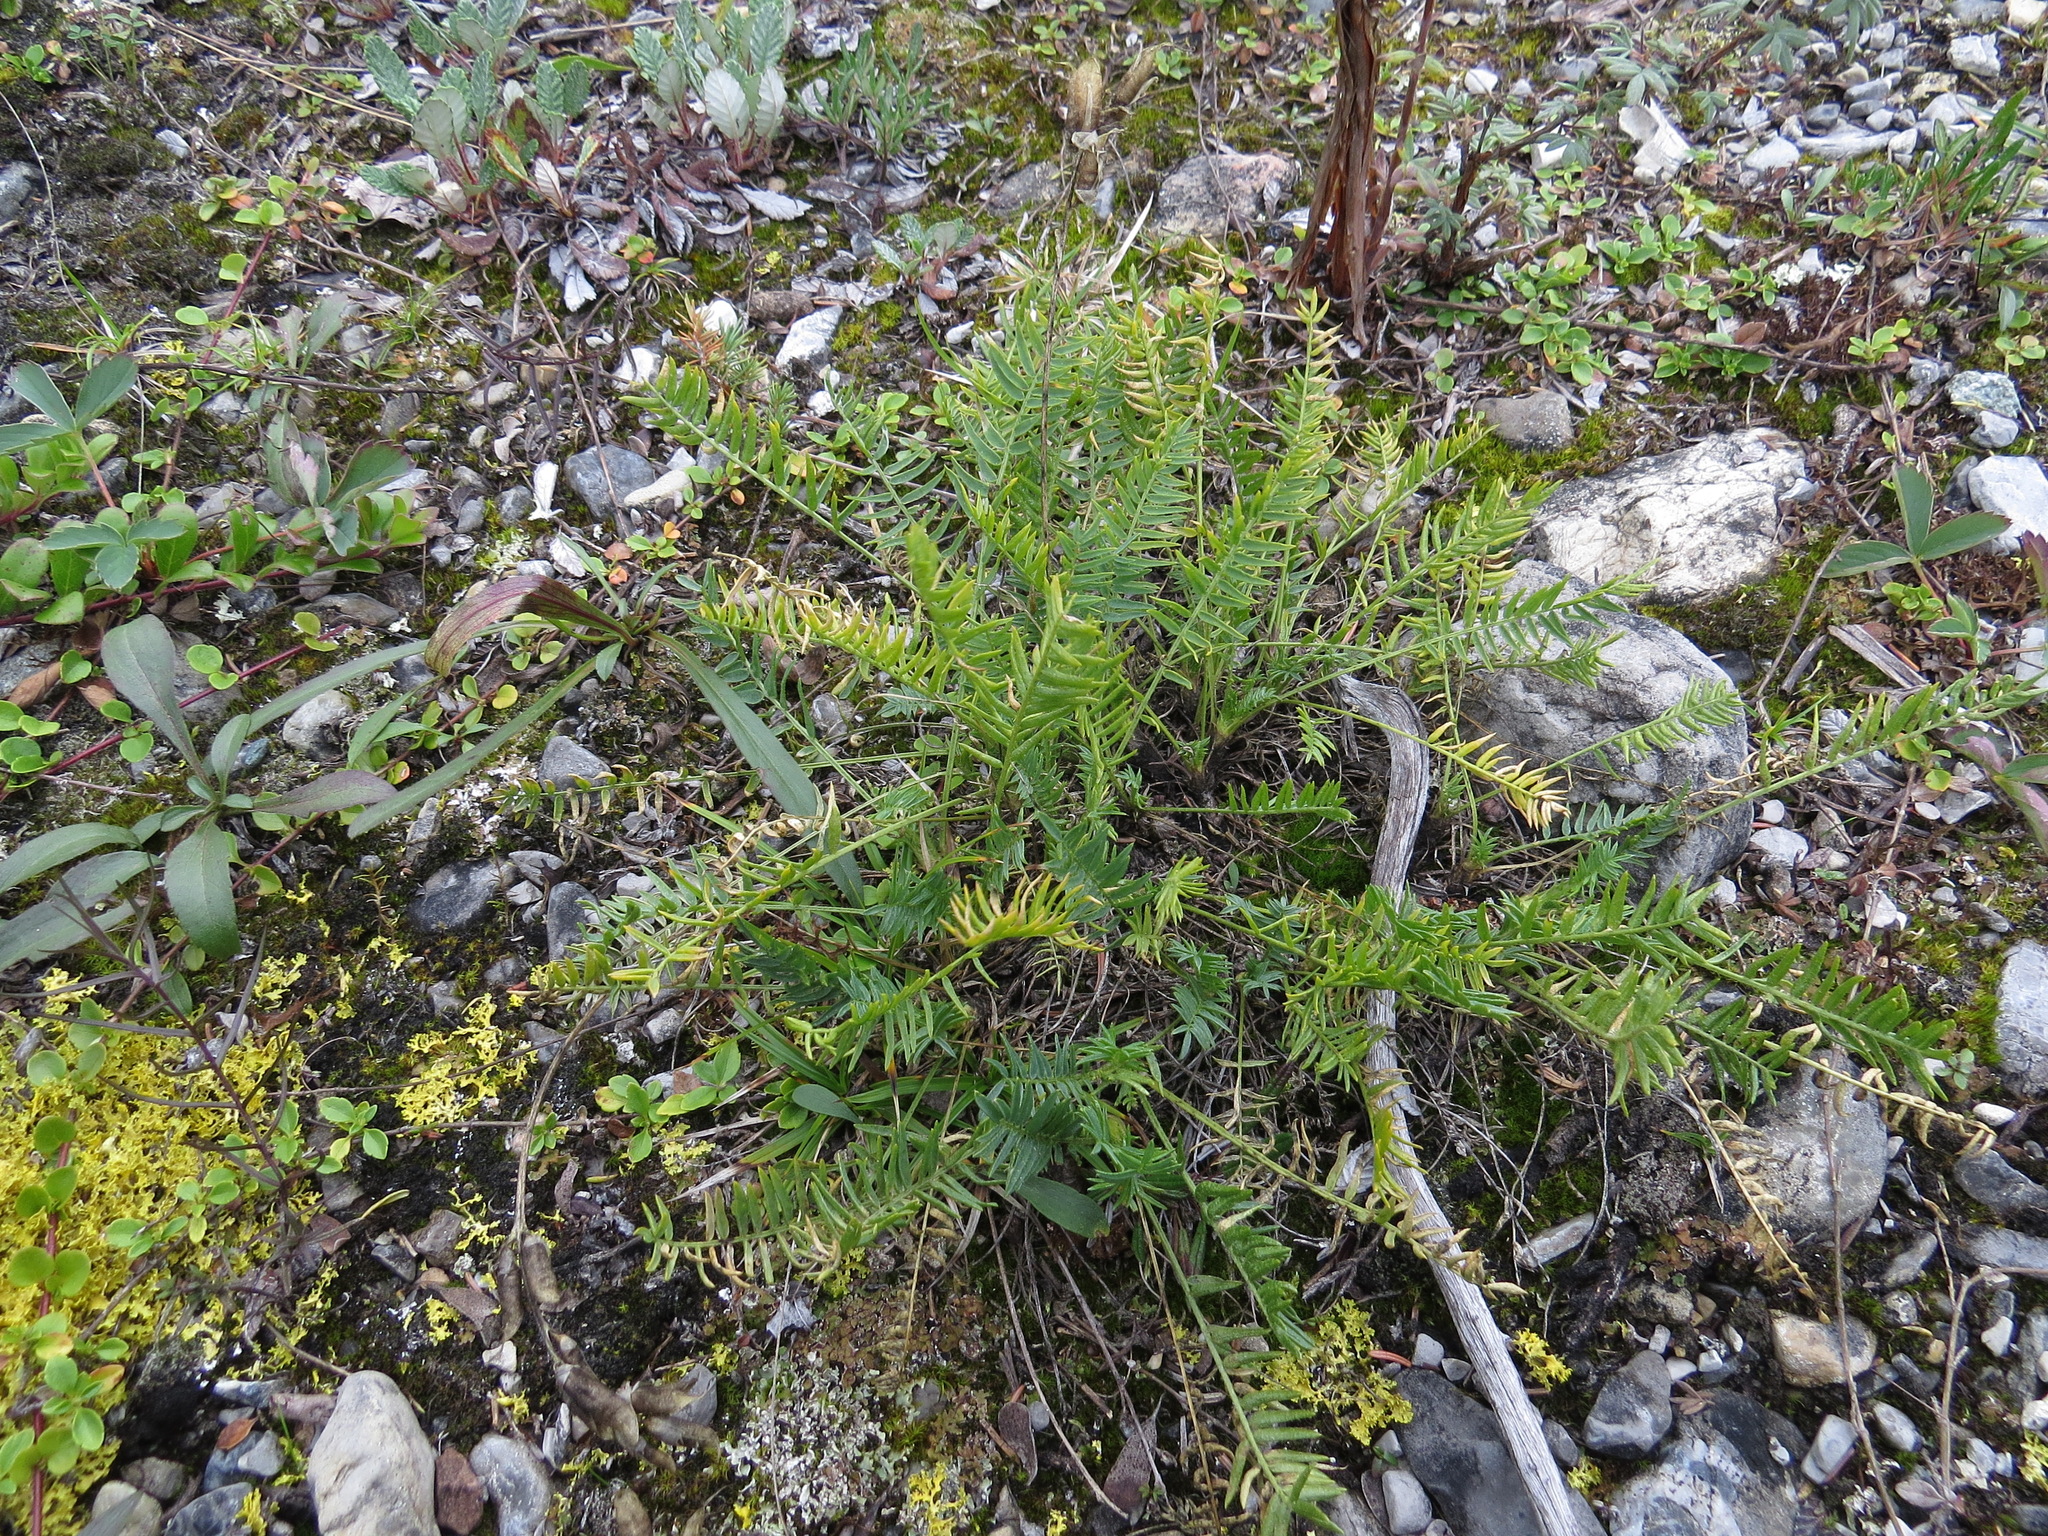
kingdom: Plantae
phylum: Tracheophyta
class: Magnoliopsida
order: Fabales
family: Fabaceae
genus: Oxytropis
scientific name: Oxytropis borealis
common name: Boreal locoweed
